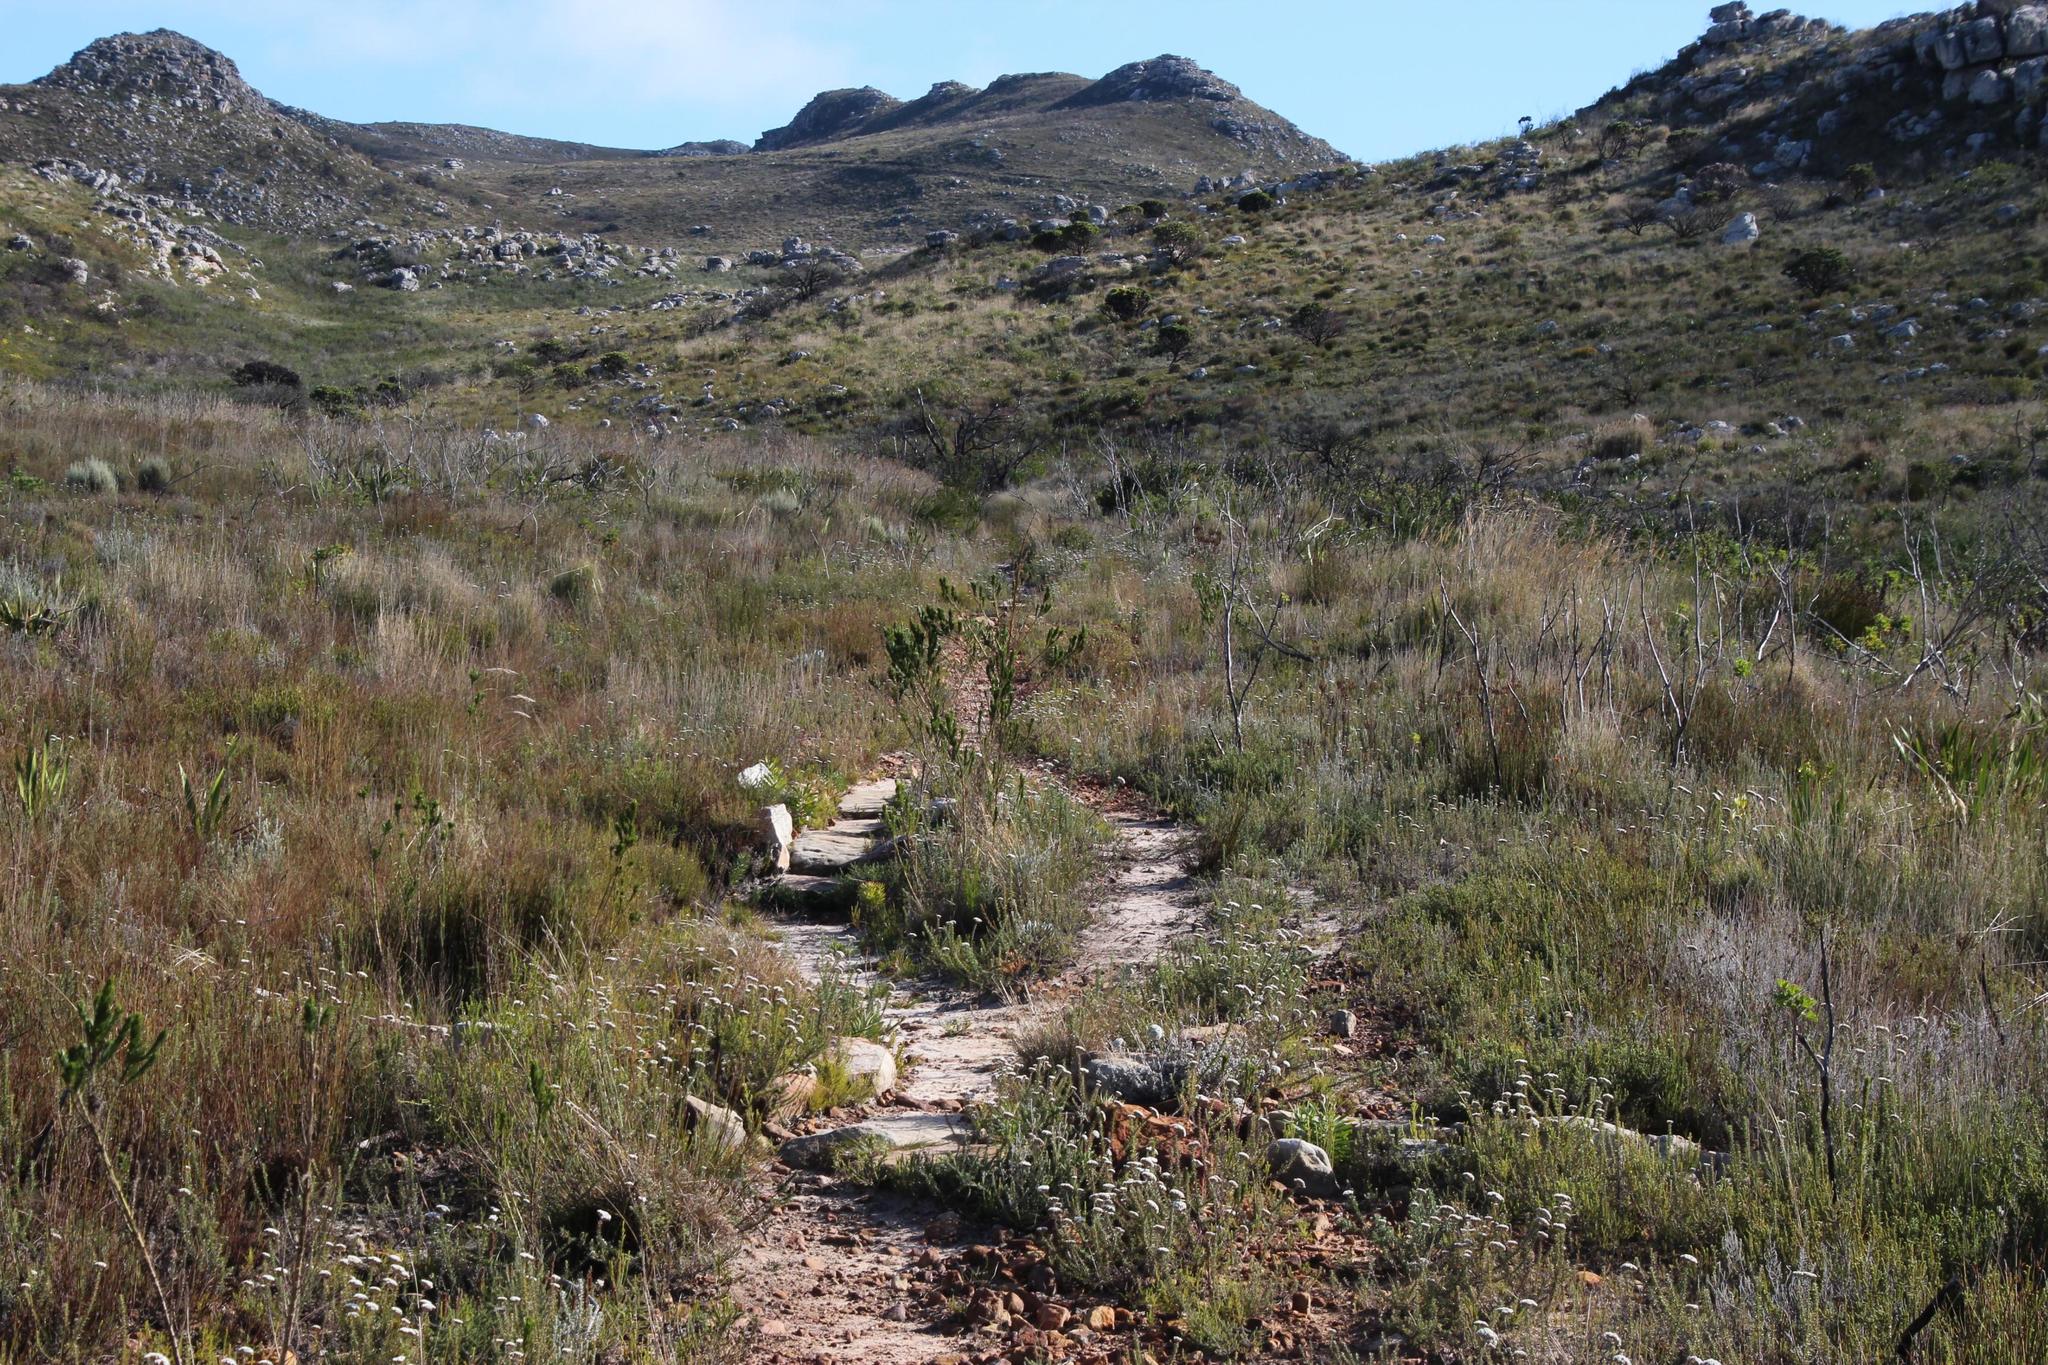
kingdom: Plantae
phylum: Tracheophyta
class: Magnoliopsida
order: Fabales
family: Fabaceae
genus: Psoralea
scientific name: Psoralea pinnata
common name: African scurfpea
